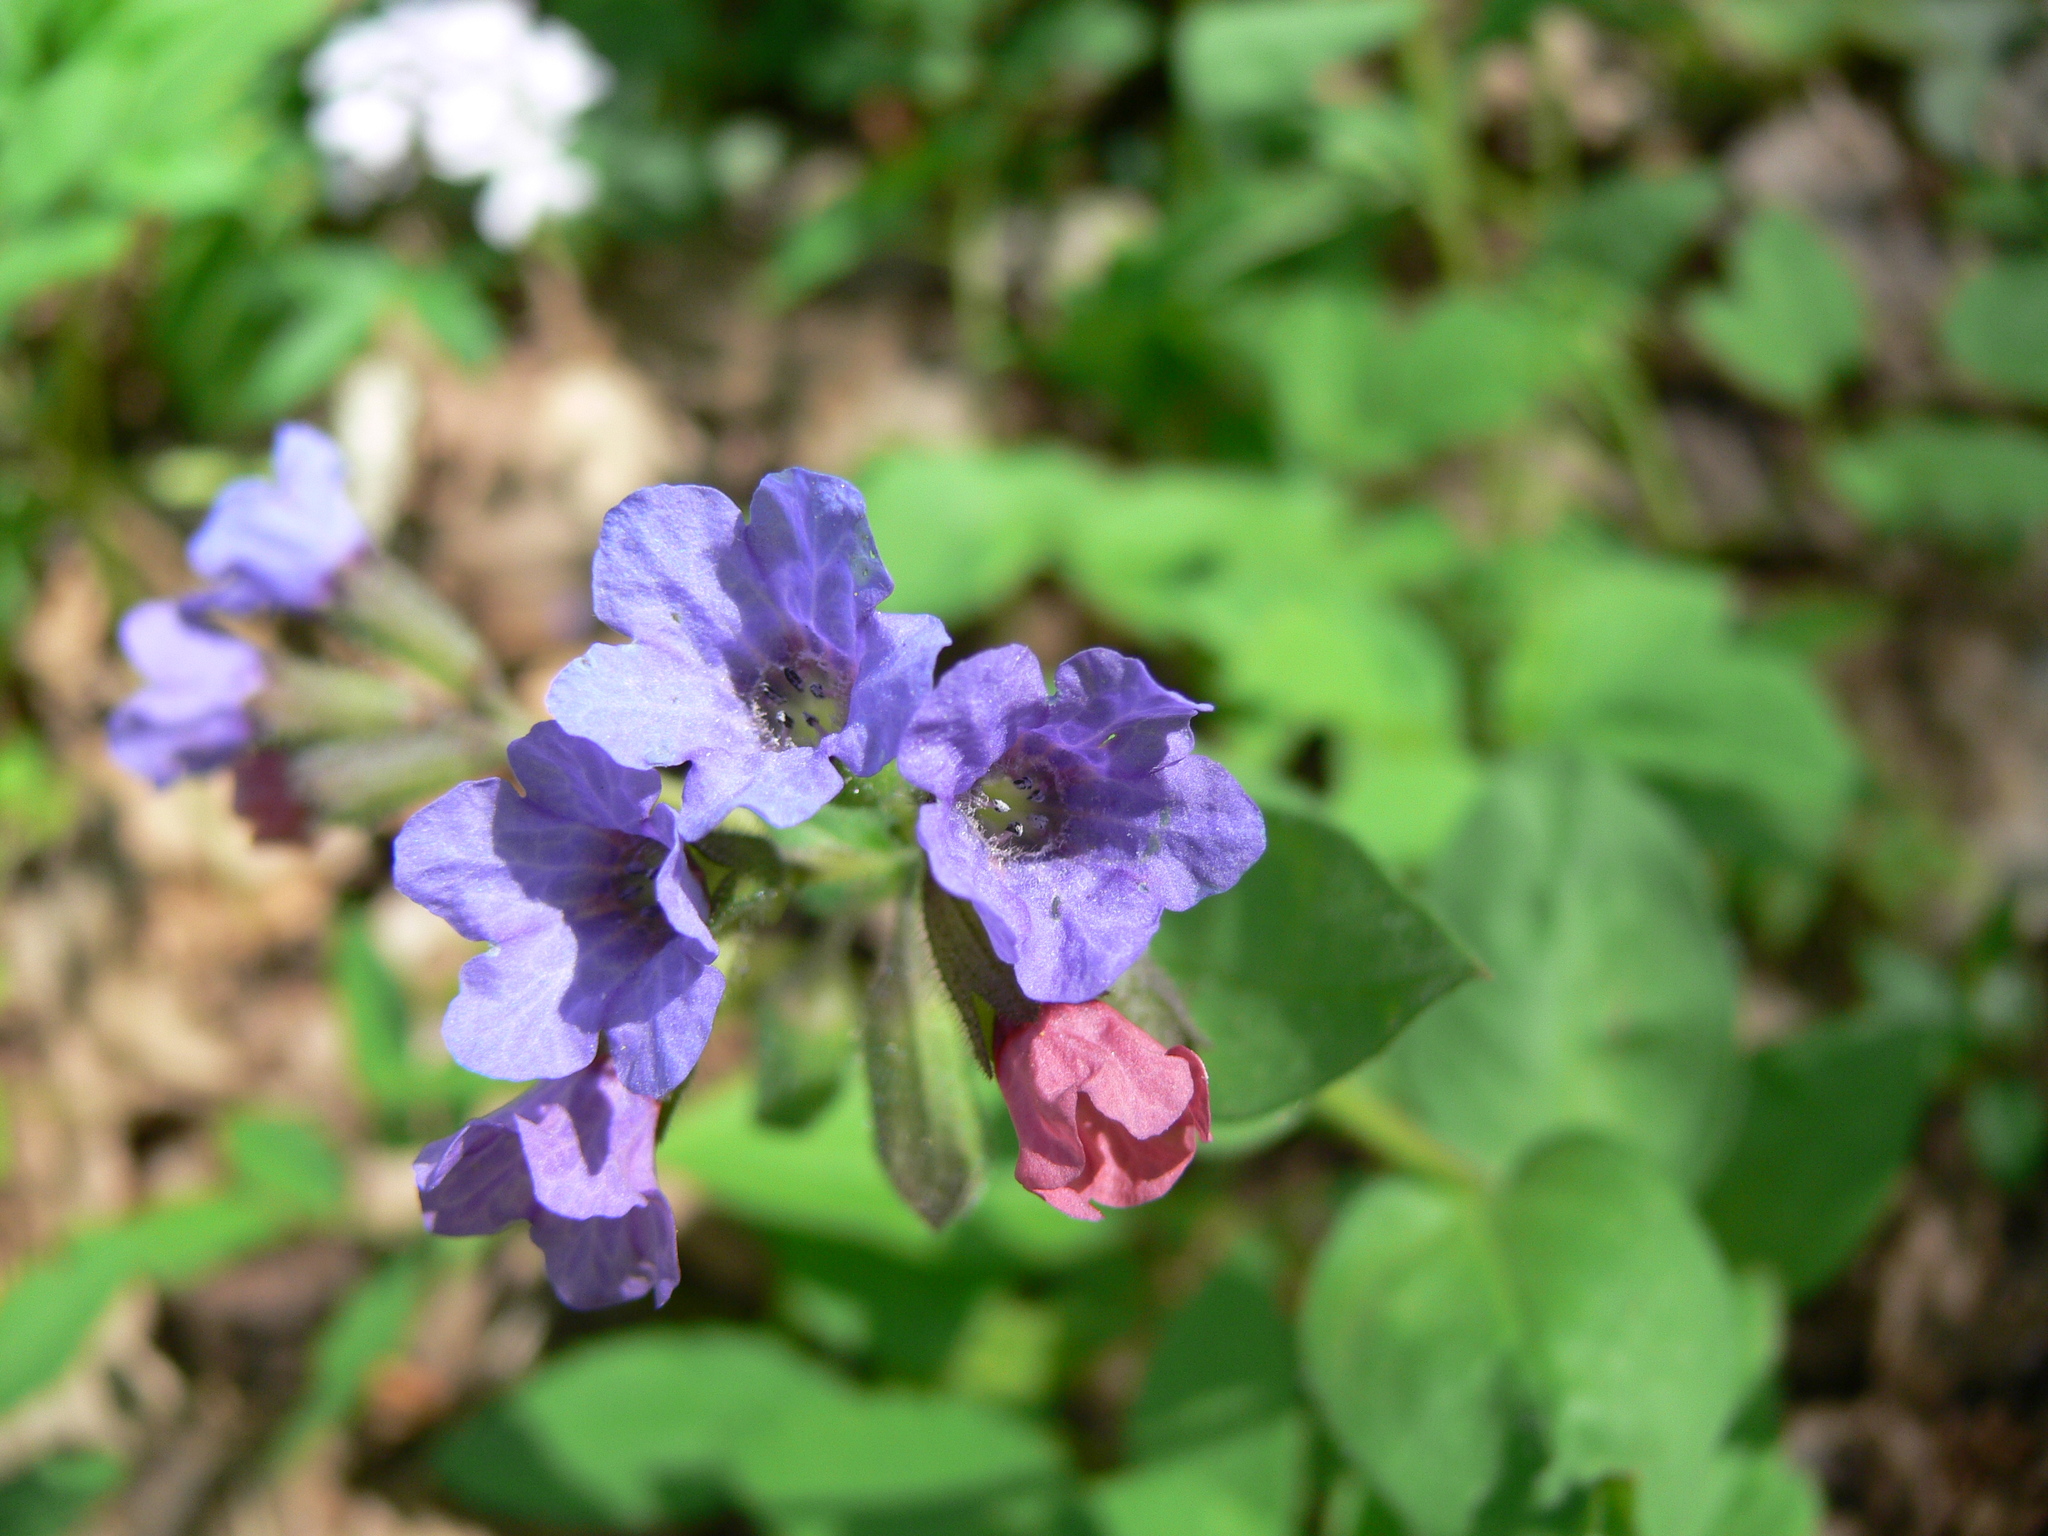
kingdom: Plantae
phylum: Tracheophyta
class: Magnoliopsida
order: Boraginales
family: Boraginaceae
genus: Pulmonaria
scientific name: Pulmonaria obscura
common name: Suffolk lungwort
